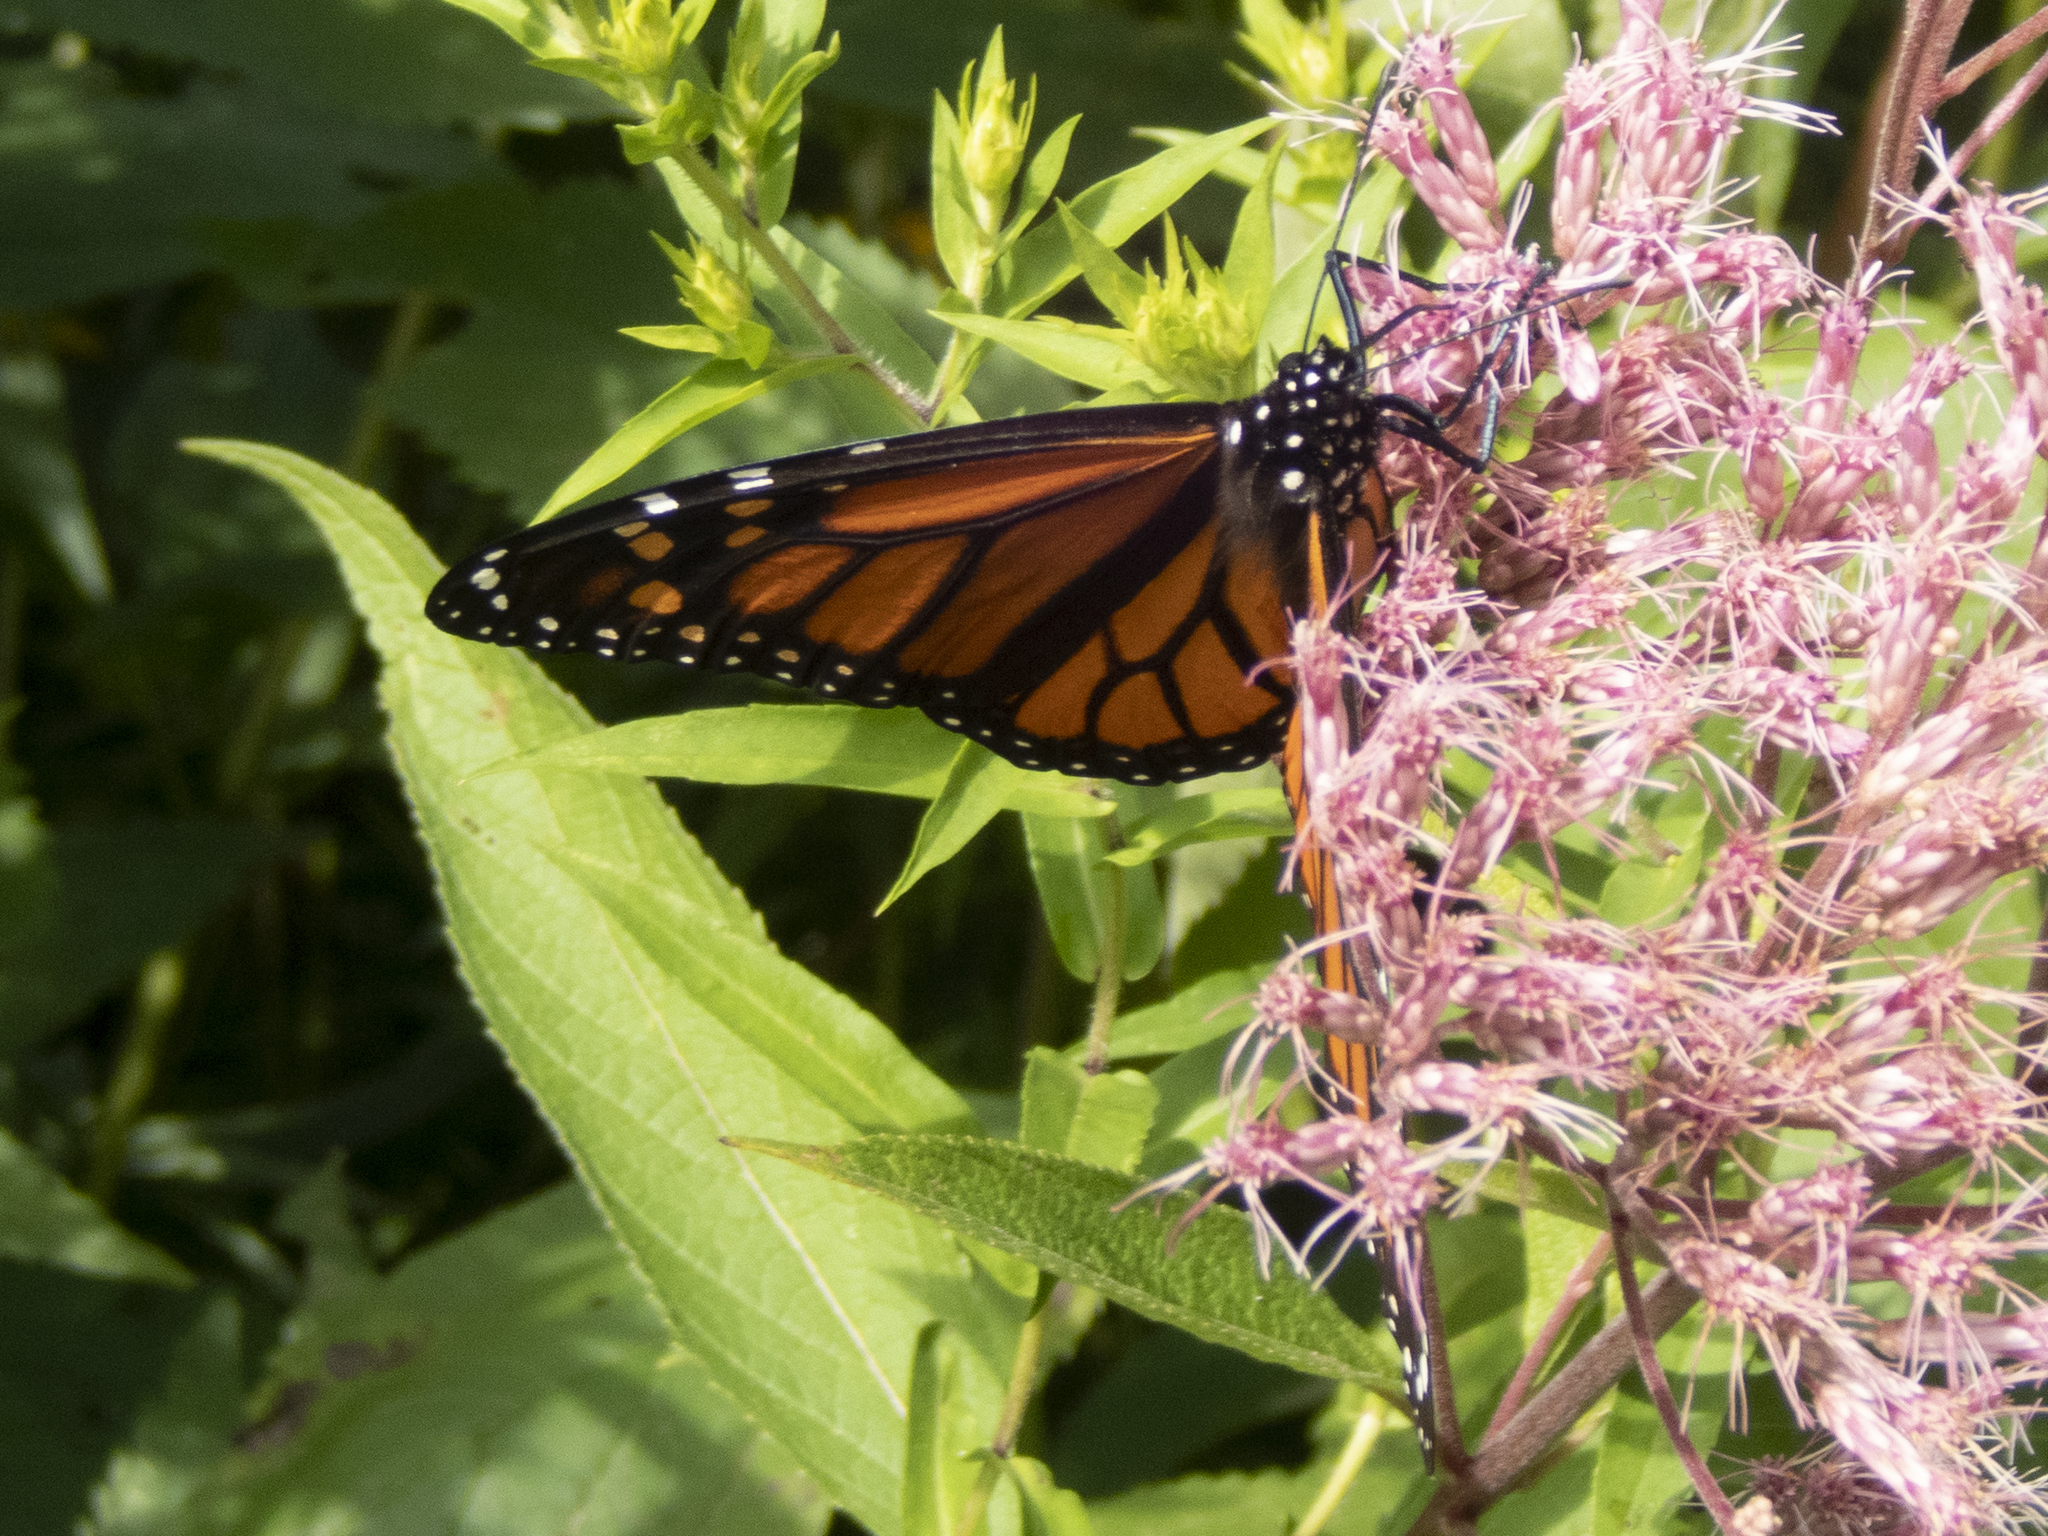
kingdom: Animalia
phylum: Arthropoda
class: Insecta
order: Lepidoptera
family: Nymphalidae
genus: Danaus
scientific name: Danaus plexippus
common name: Monarch
